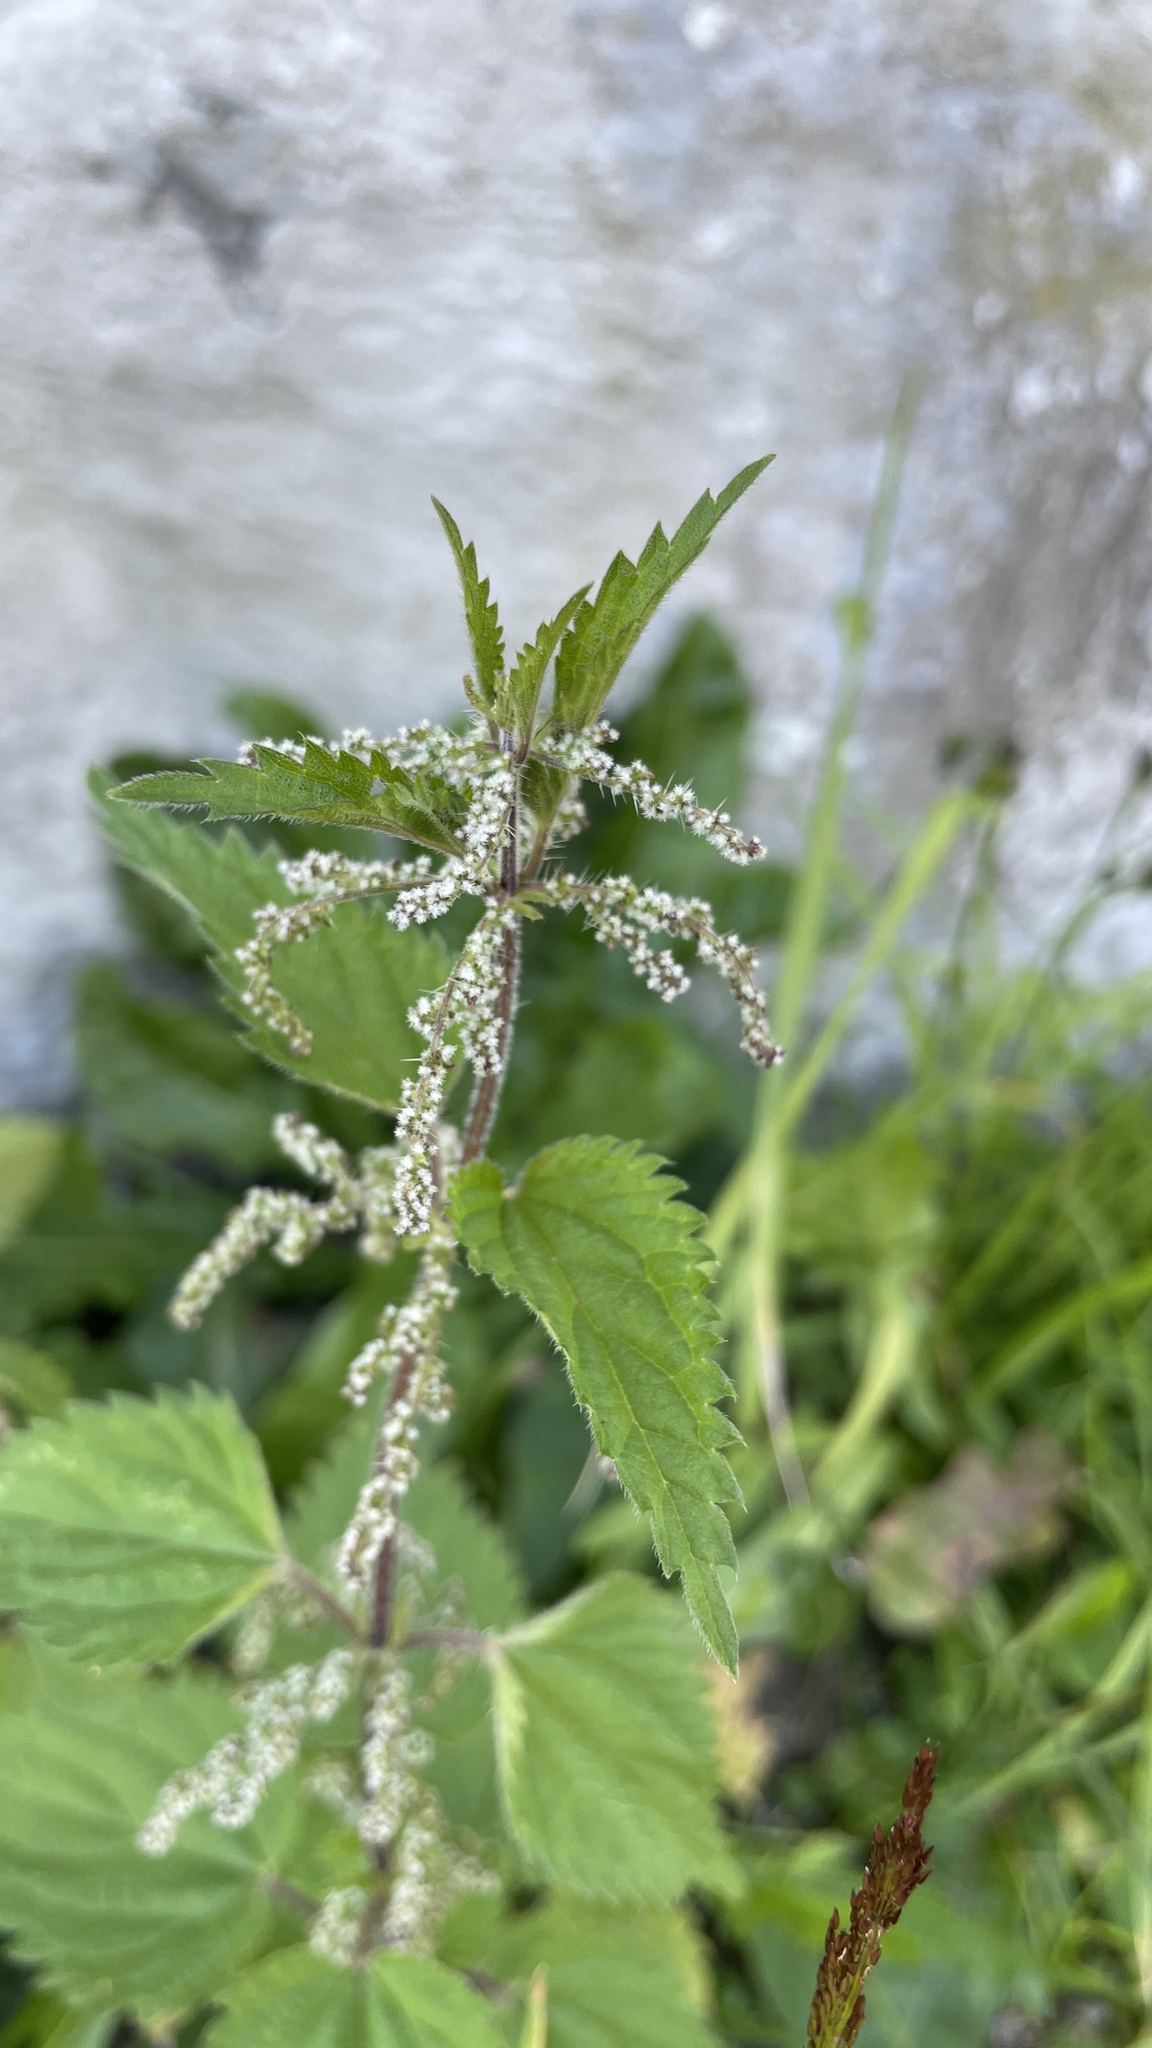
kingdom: Plantae
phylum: Tracheophyta
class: Magnoliopsida
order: Rosales
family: Urticaceae
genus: Urtica
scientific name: Urtica dioica
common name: Common nettle
